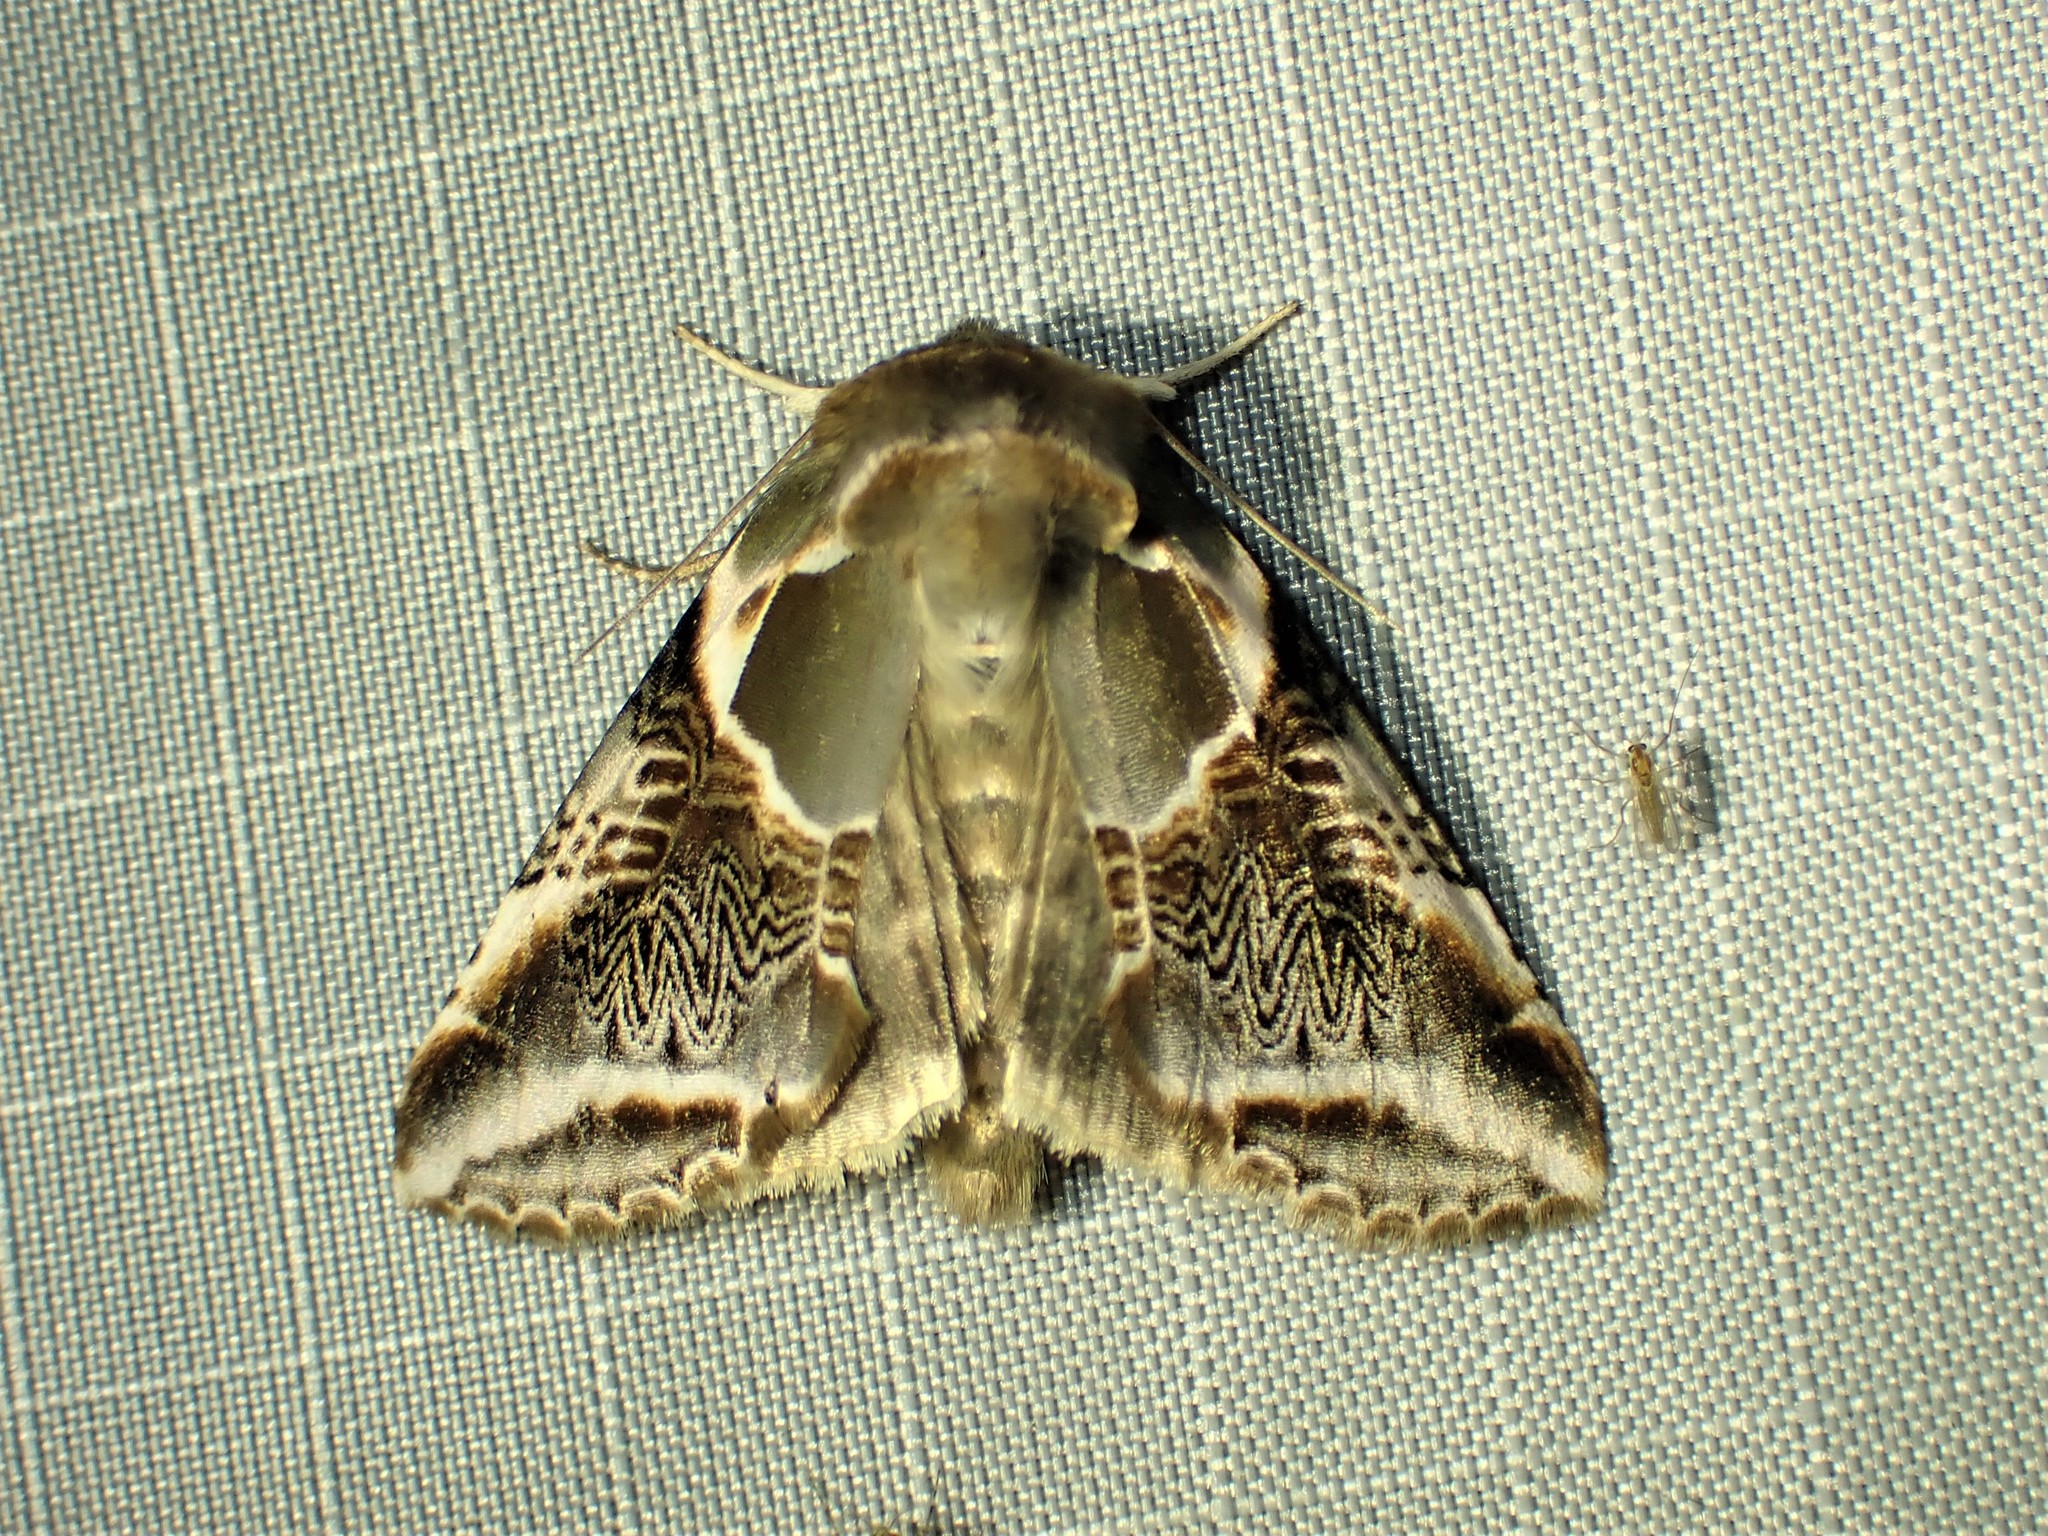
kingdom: Animalia
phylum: Arthropoda
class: Insecta
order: Lepidoptera
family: Drepanidae
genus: Habrosyne
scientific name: Habrosyne scripta
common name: Lettered habrosyne moth
